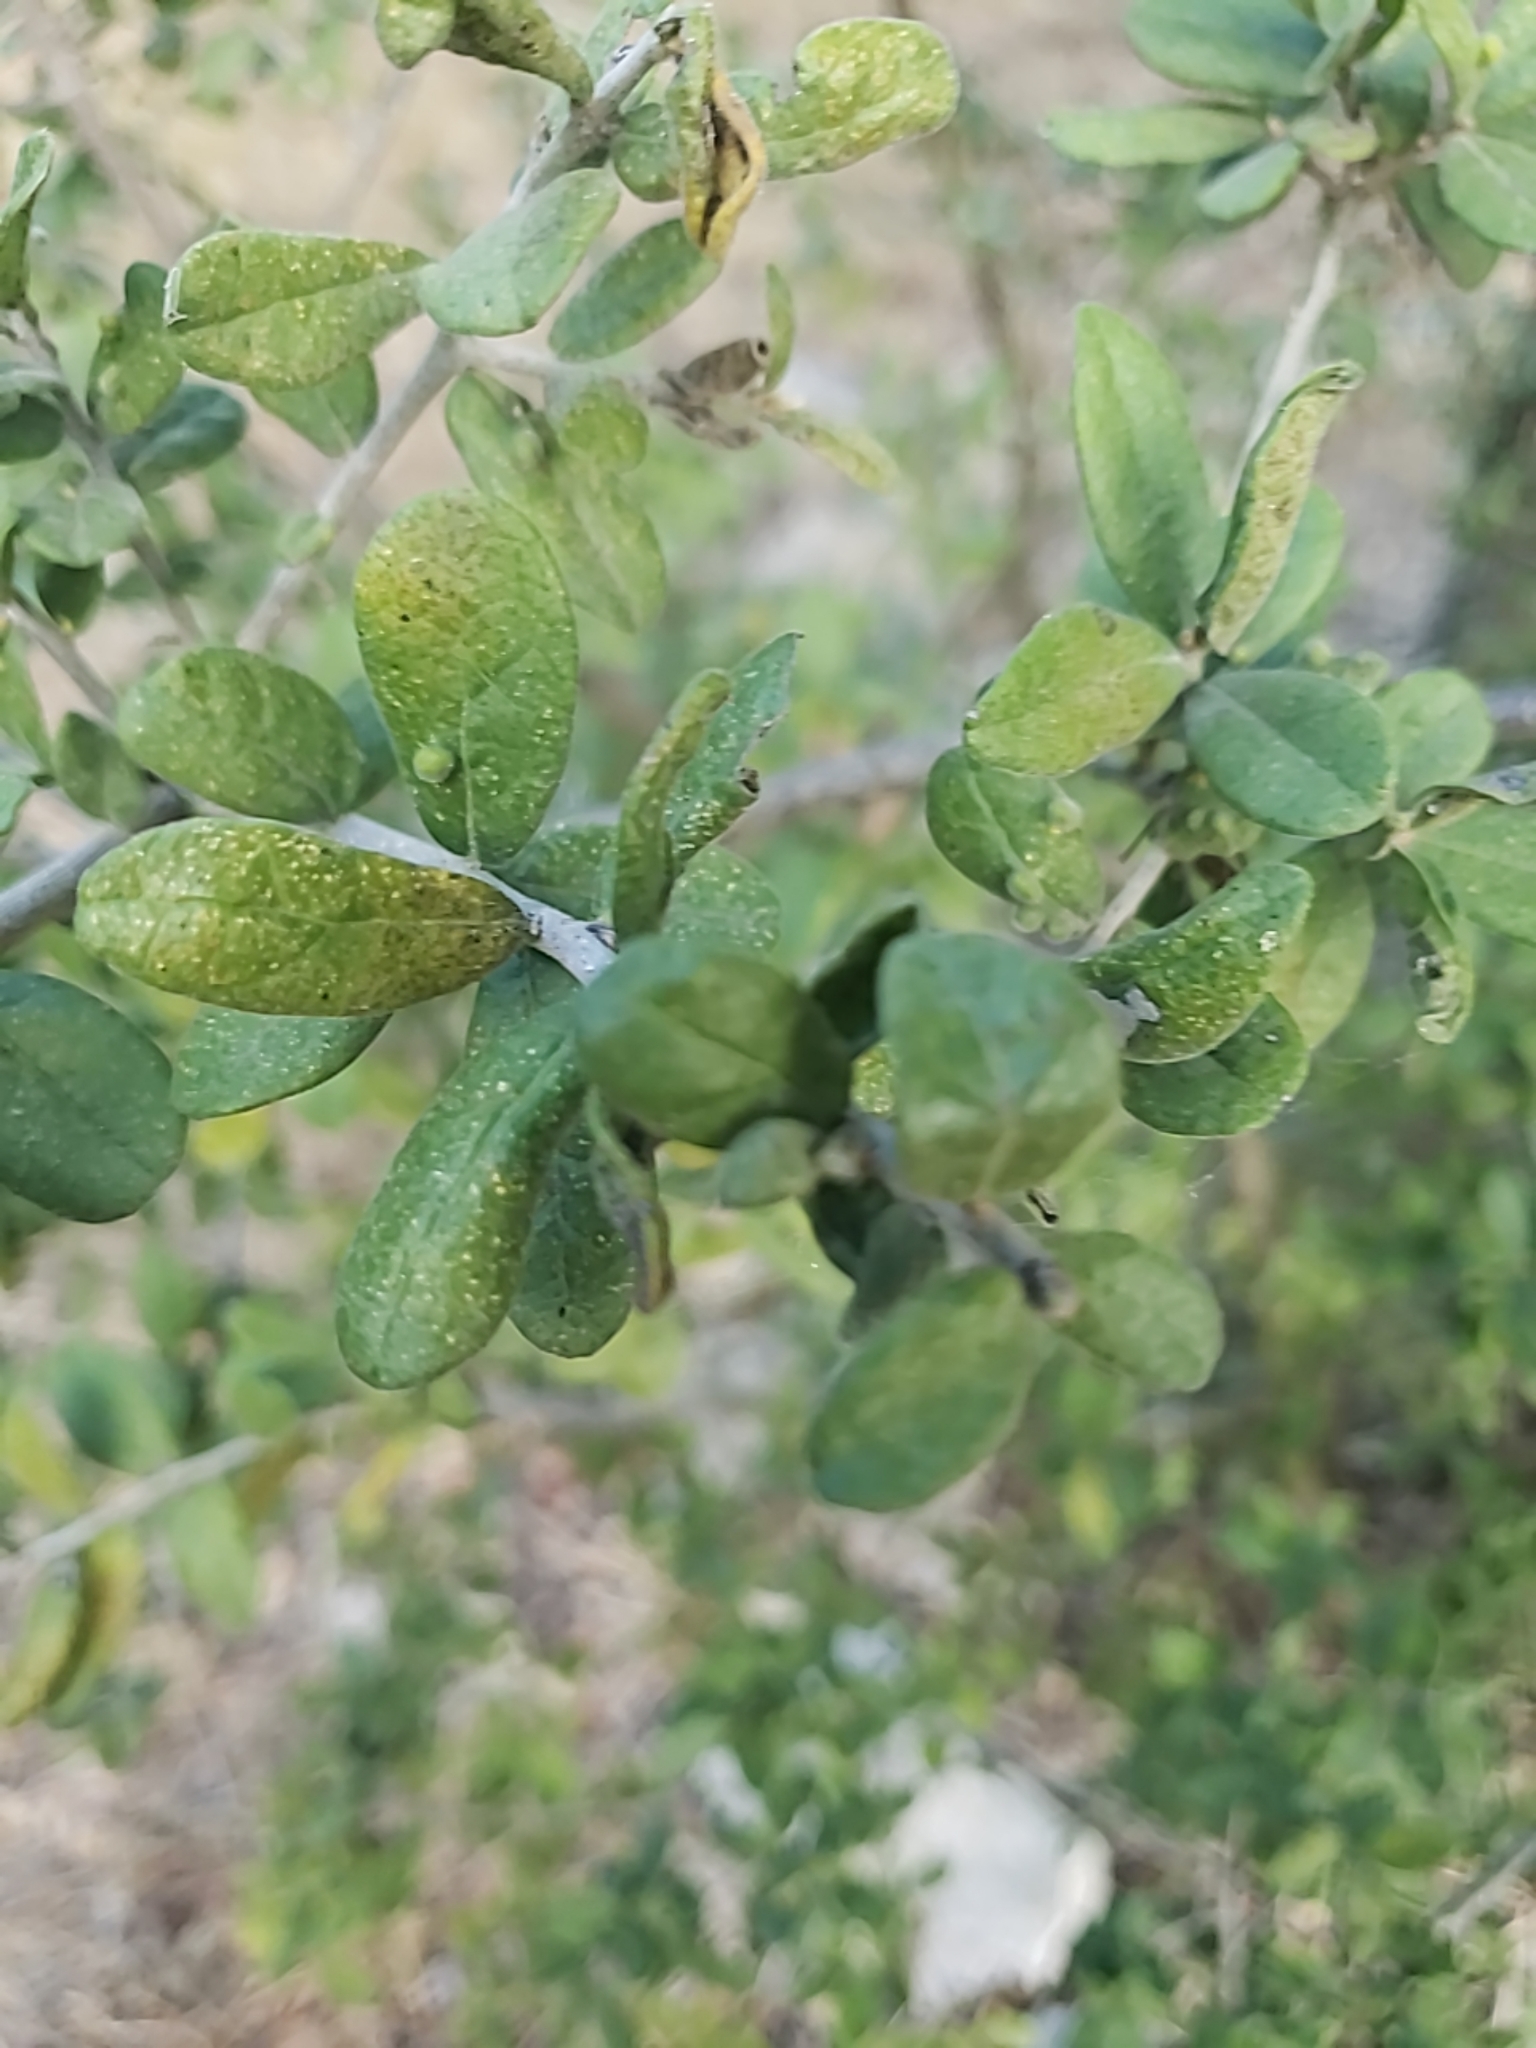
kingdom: Plantae
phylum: Tracheophyta
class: Magnoliopsida
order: Ericales
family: Ebenaceae
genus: Diospyros
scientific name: Diospyros texana
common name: Texas persimmon
